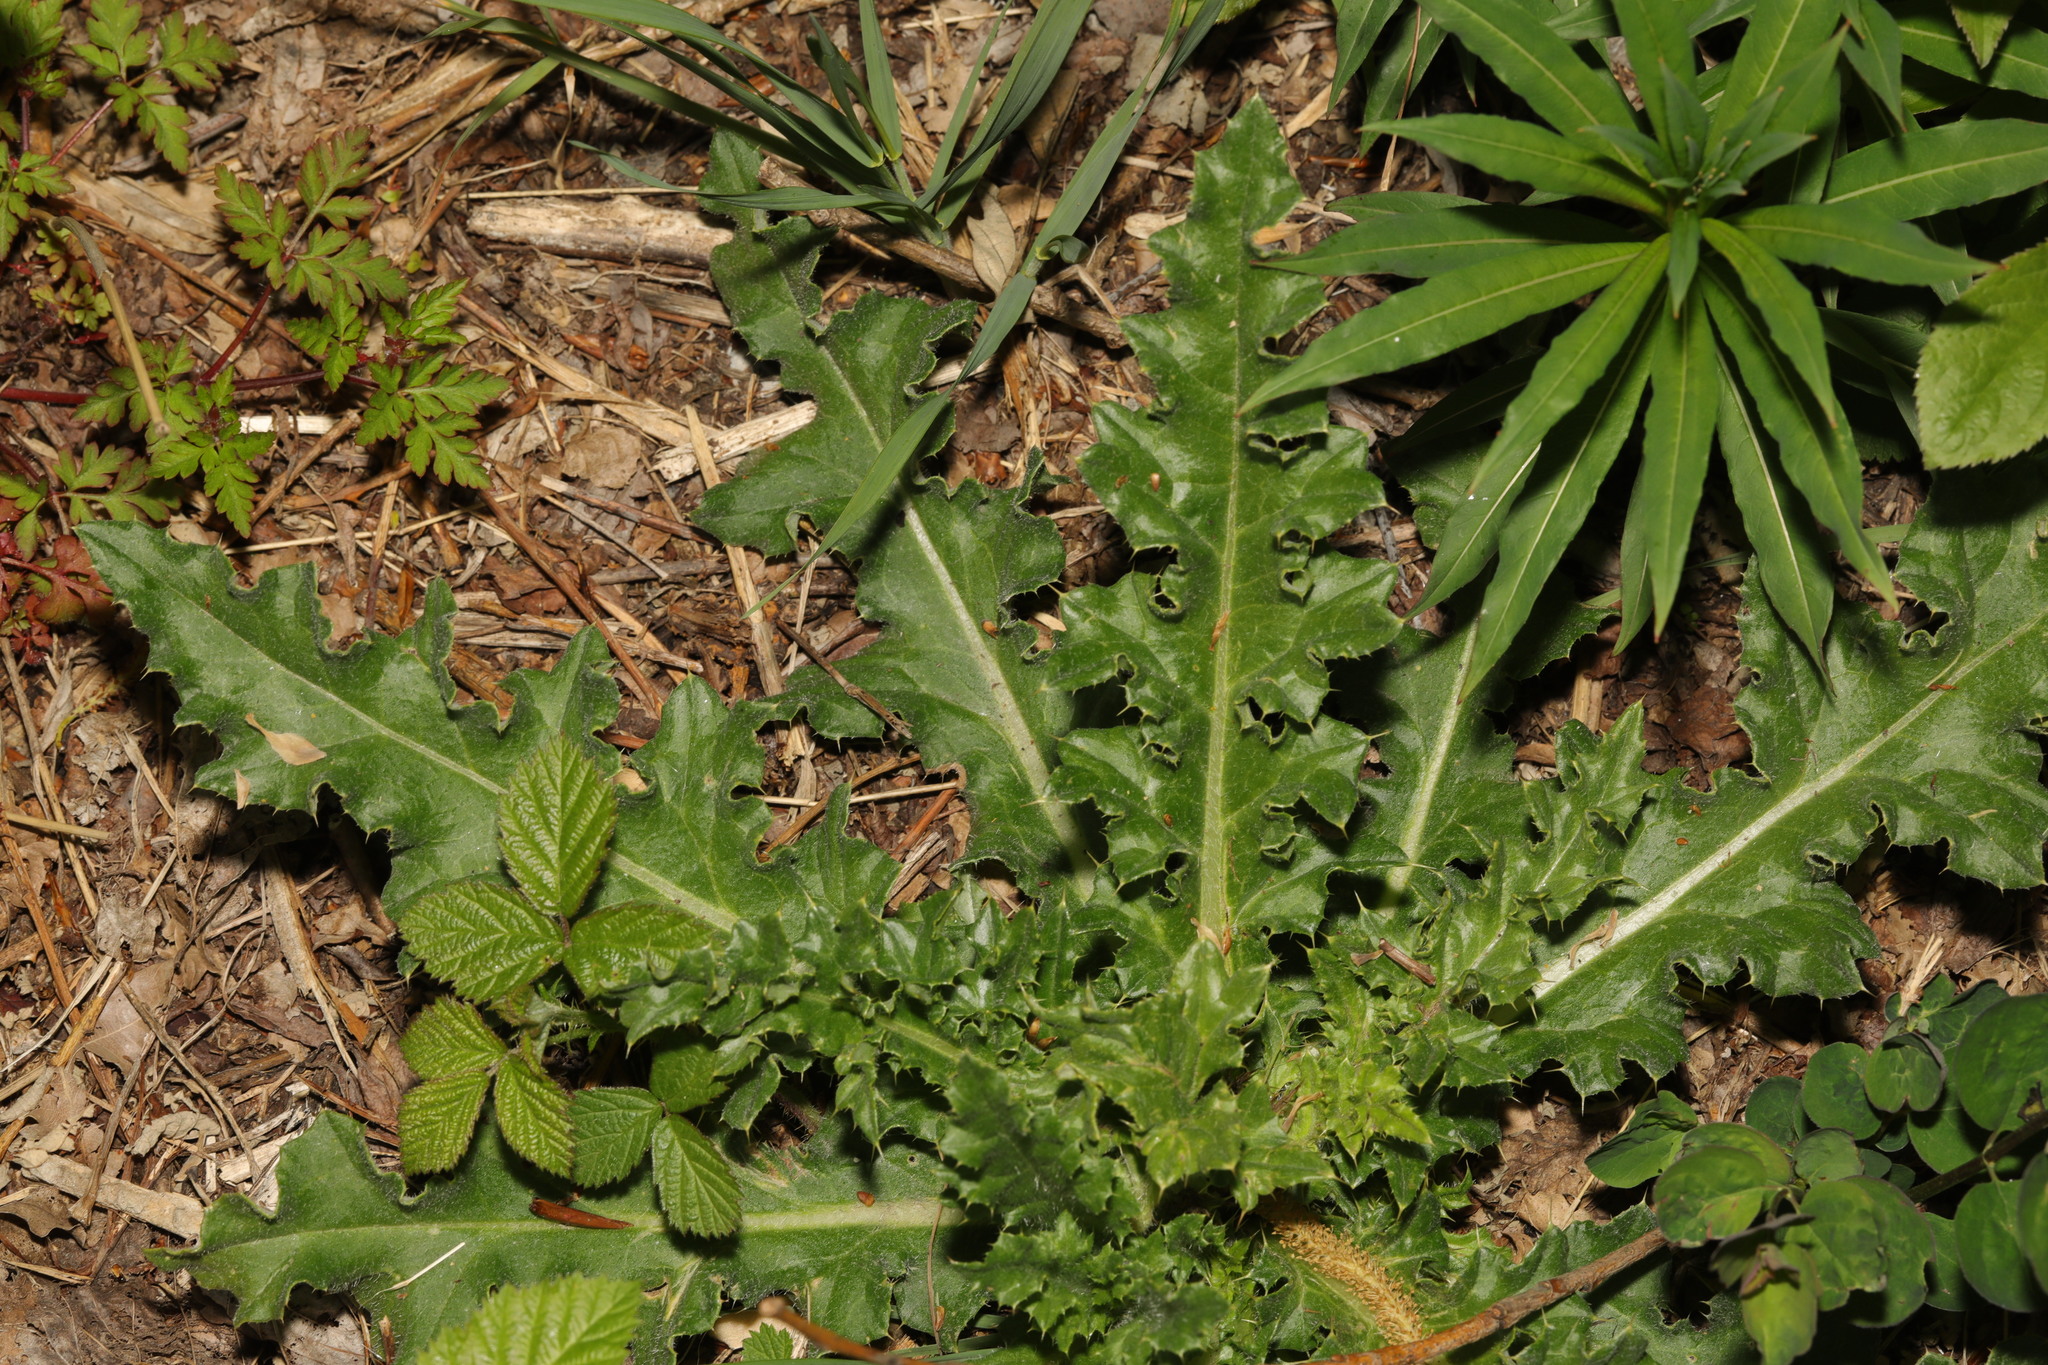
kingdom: Plantae
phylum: Tracheophyta
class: Magnoliopsida
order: Asterales
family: Asteraceae
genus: Cirsium
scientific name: Cirsium arvense
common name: Creeping thistle
